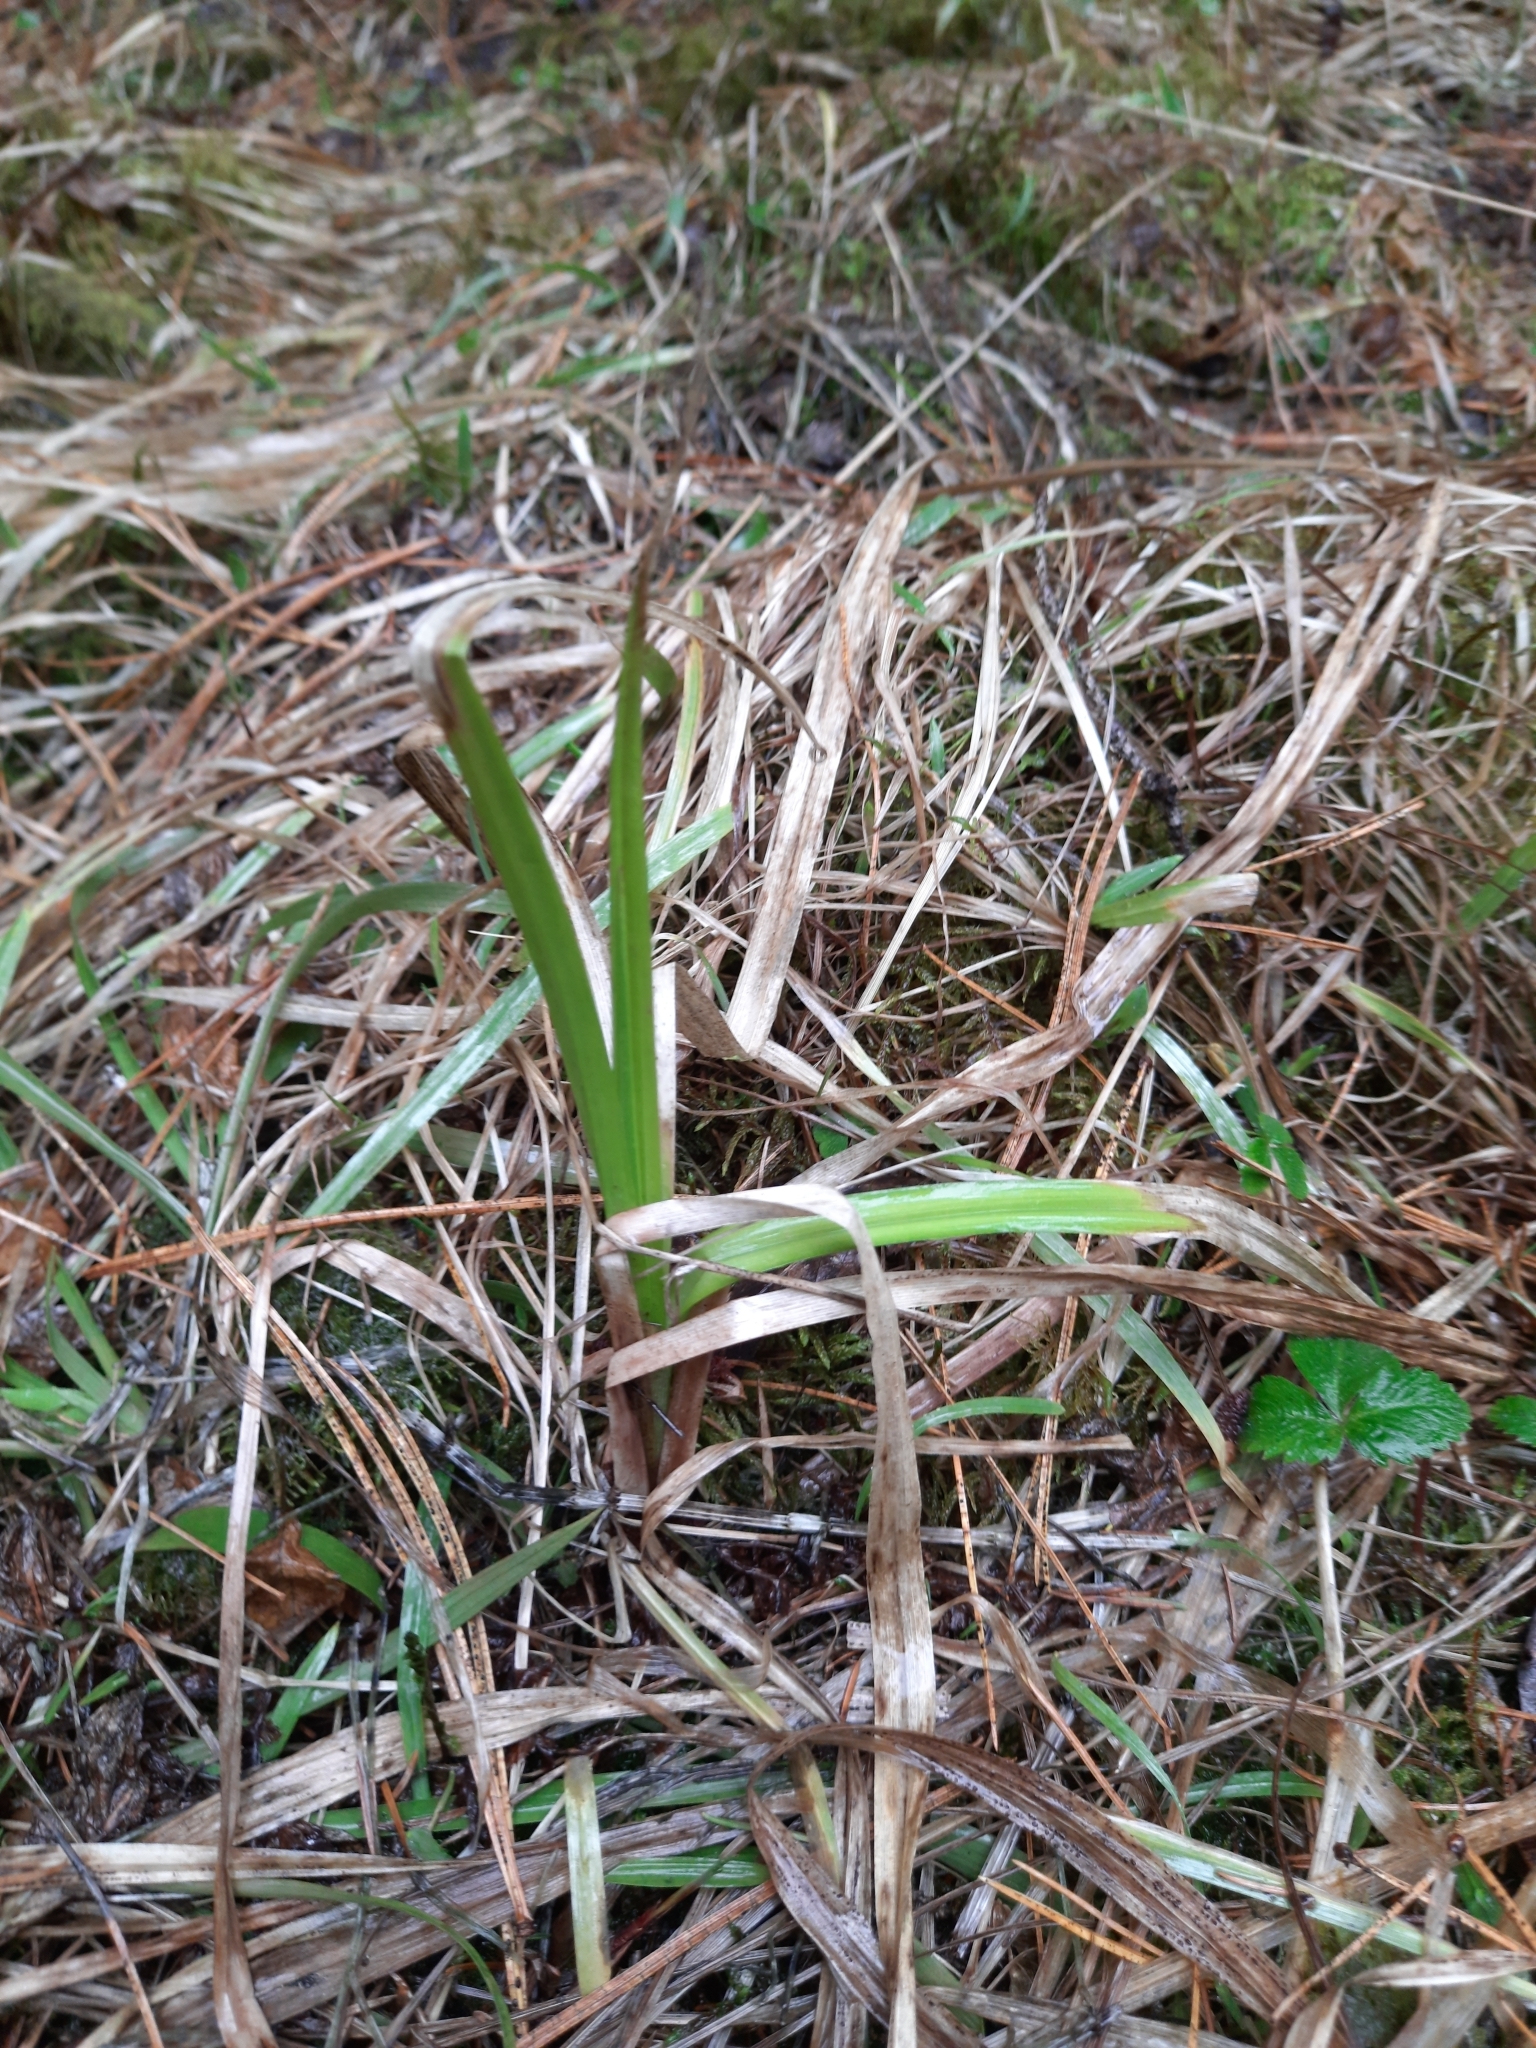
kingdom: Plantae
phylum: Tracheophyta
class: Liliopsida
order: Poales
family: Cyperaceae
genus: Scirpus
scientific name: Scirpus sylvaticus
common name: Wood club-rush
